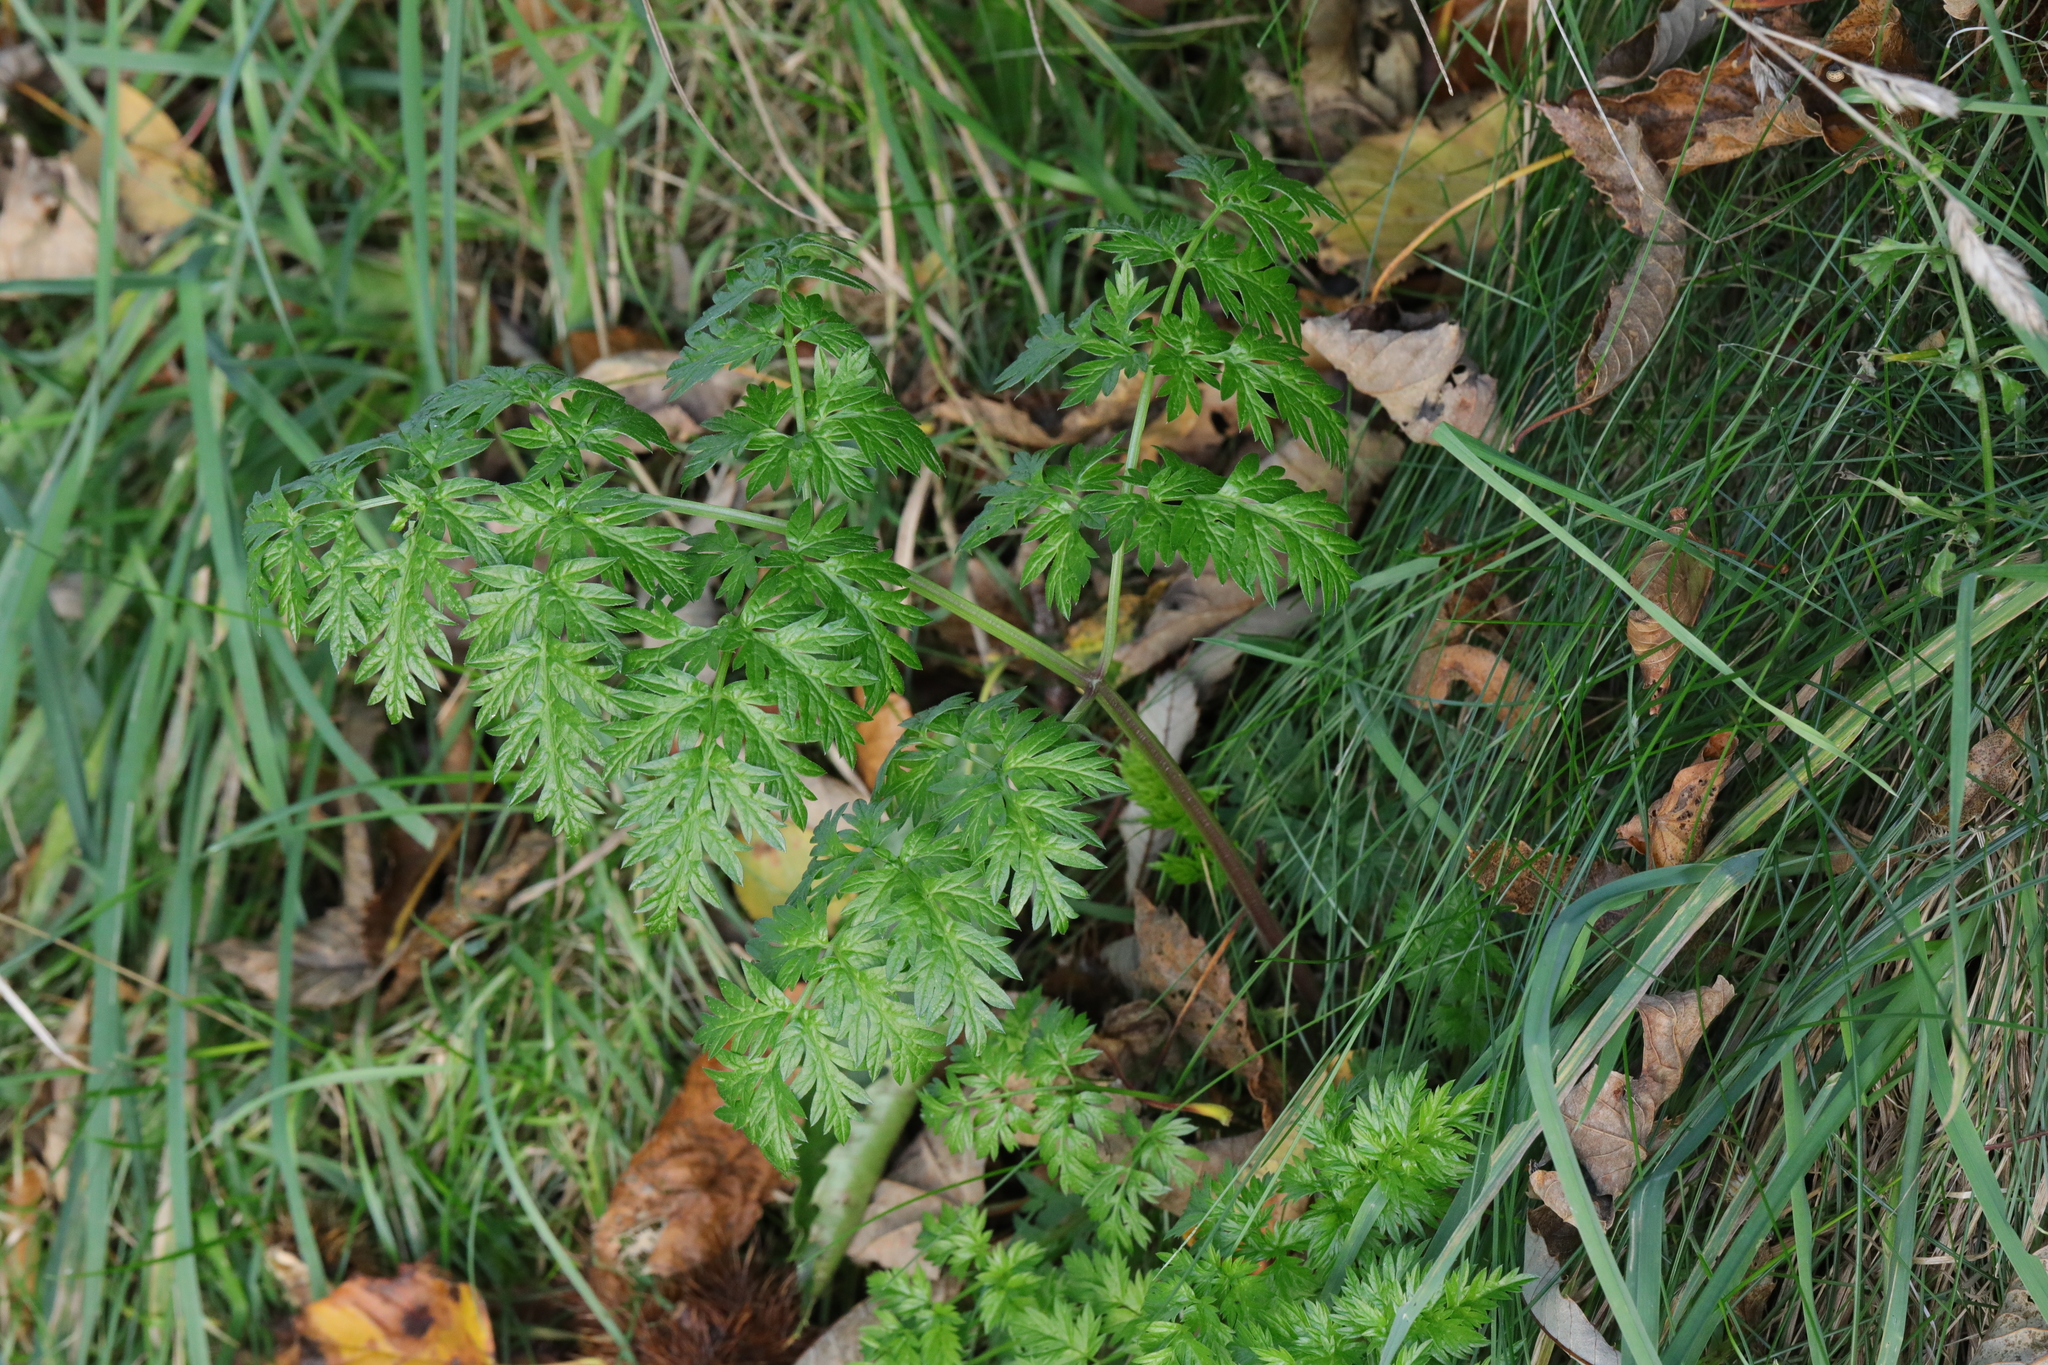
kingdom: Plantae
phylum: Tracheophyta
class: Magnoliopsida
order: Apiales
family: Apiaceae
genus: Anthriscus
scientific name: Anthriscus sylvestris
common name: Cow parsley
